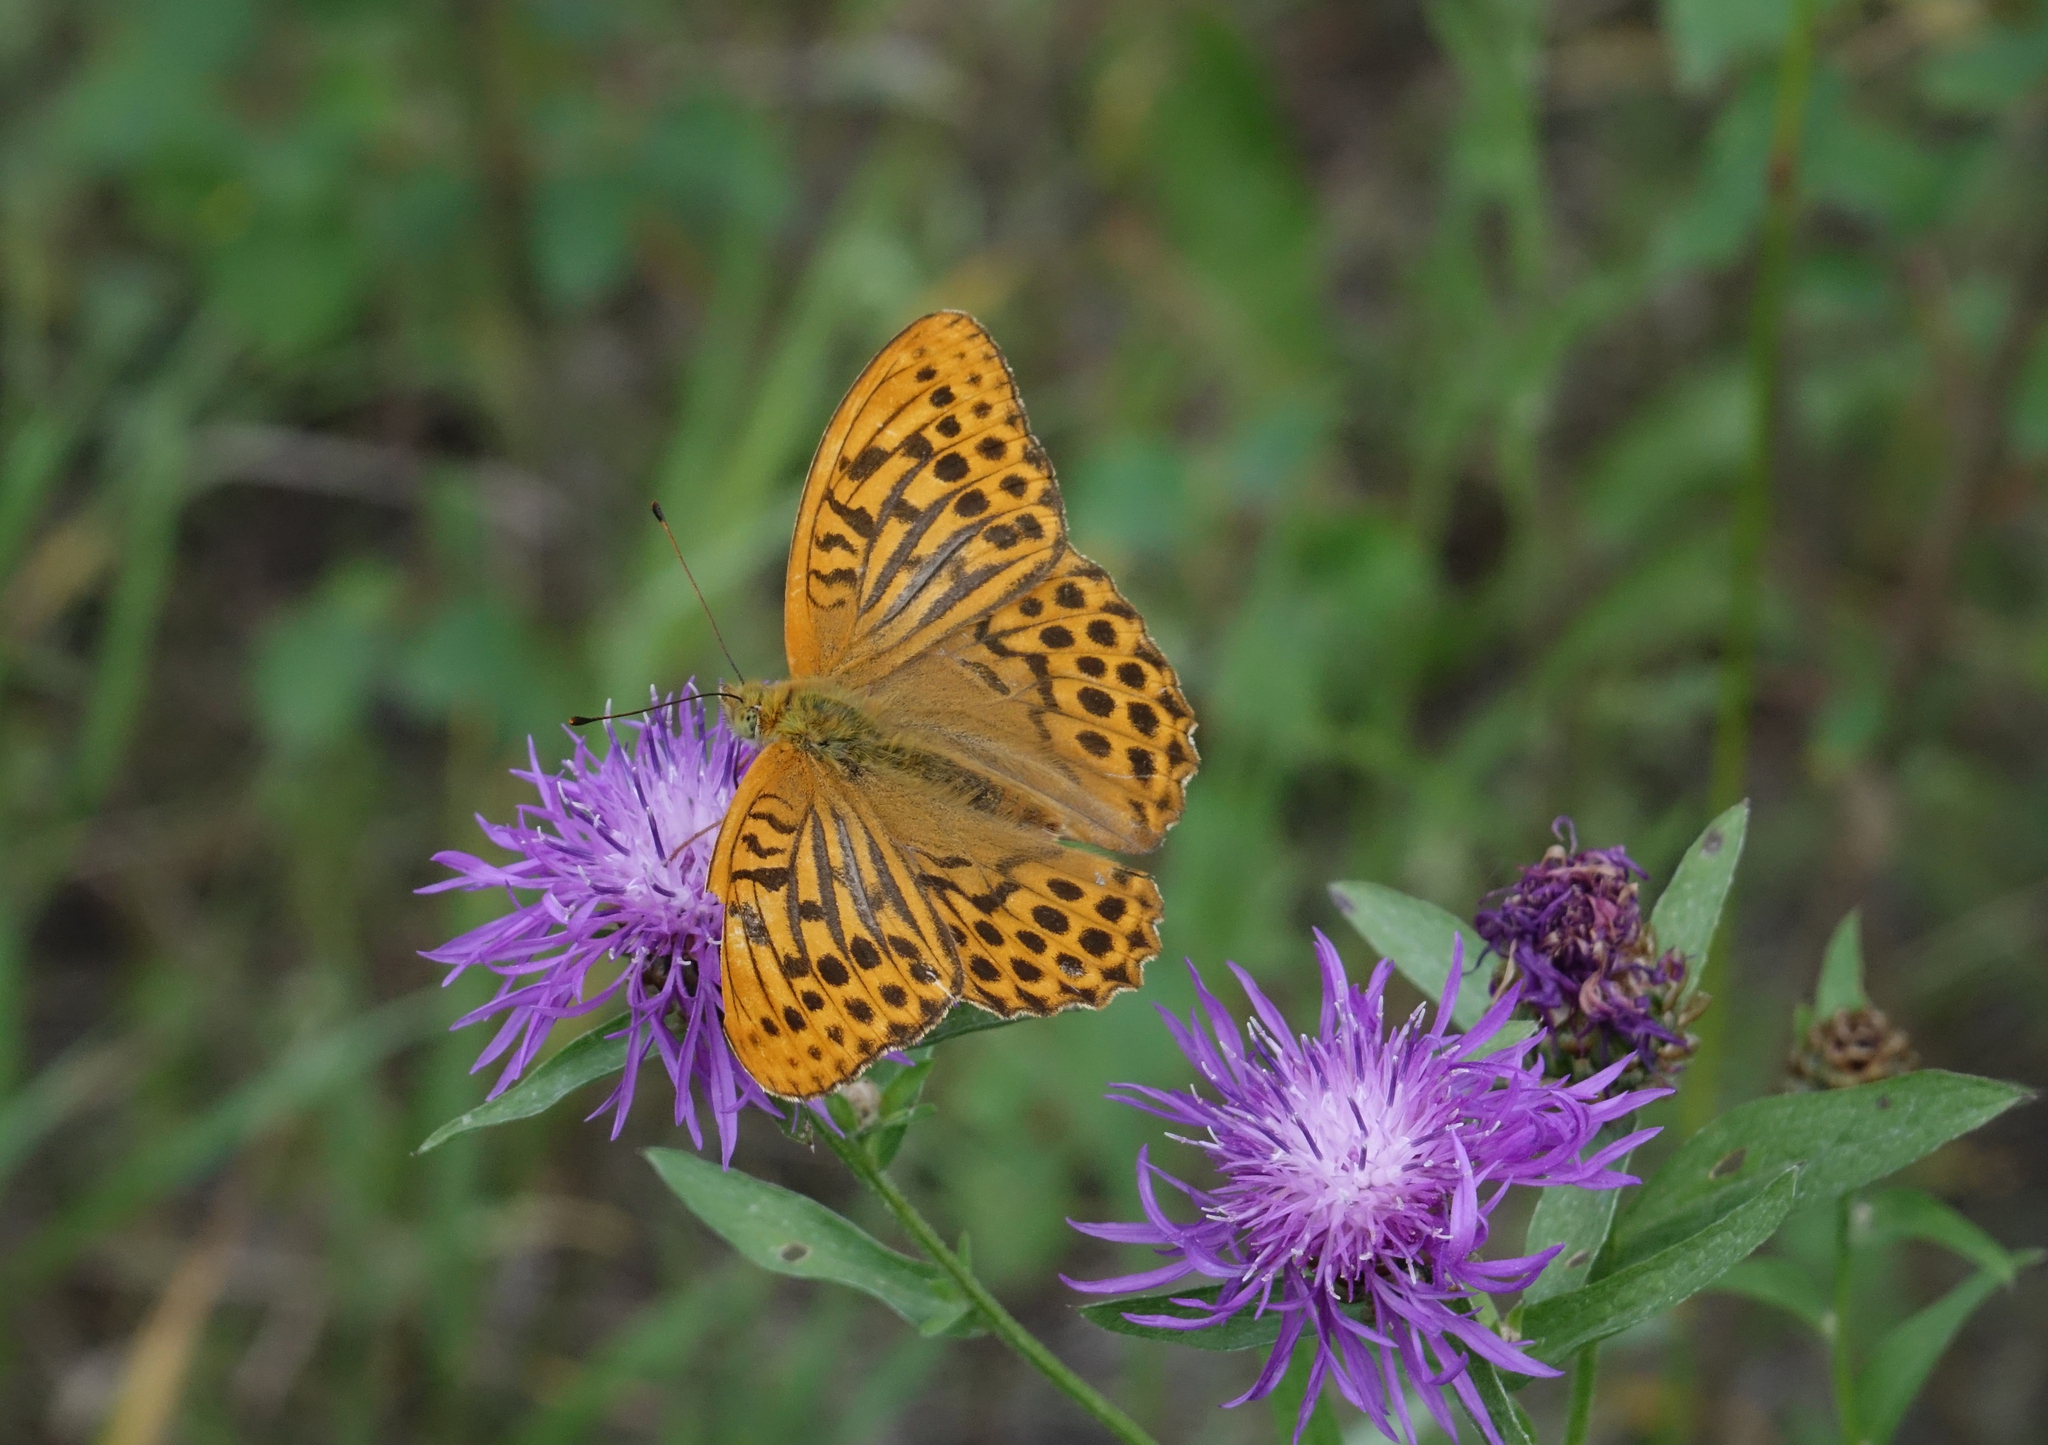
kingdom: Animalia
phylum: Arthropoda
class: Insecta
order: Lepidoptera
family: Nymphalidae
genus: Argynnis
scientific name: Argynnis paphia
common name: Silver-washed fritillary
